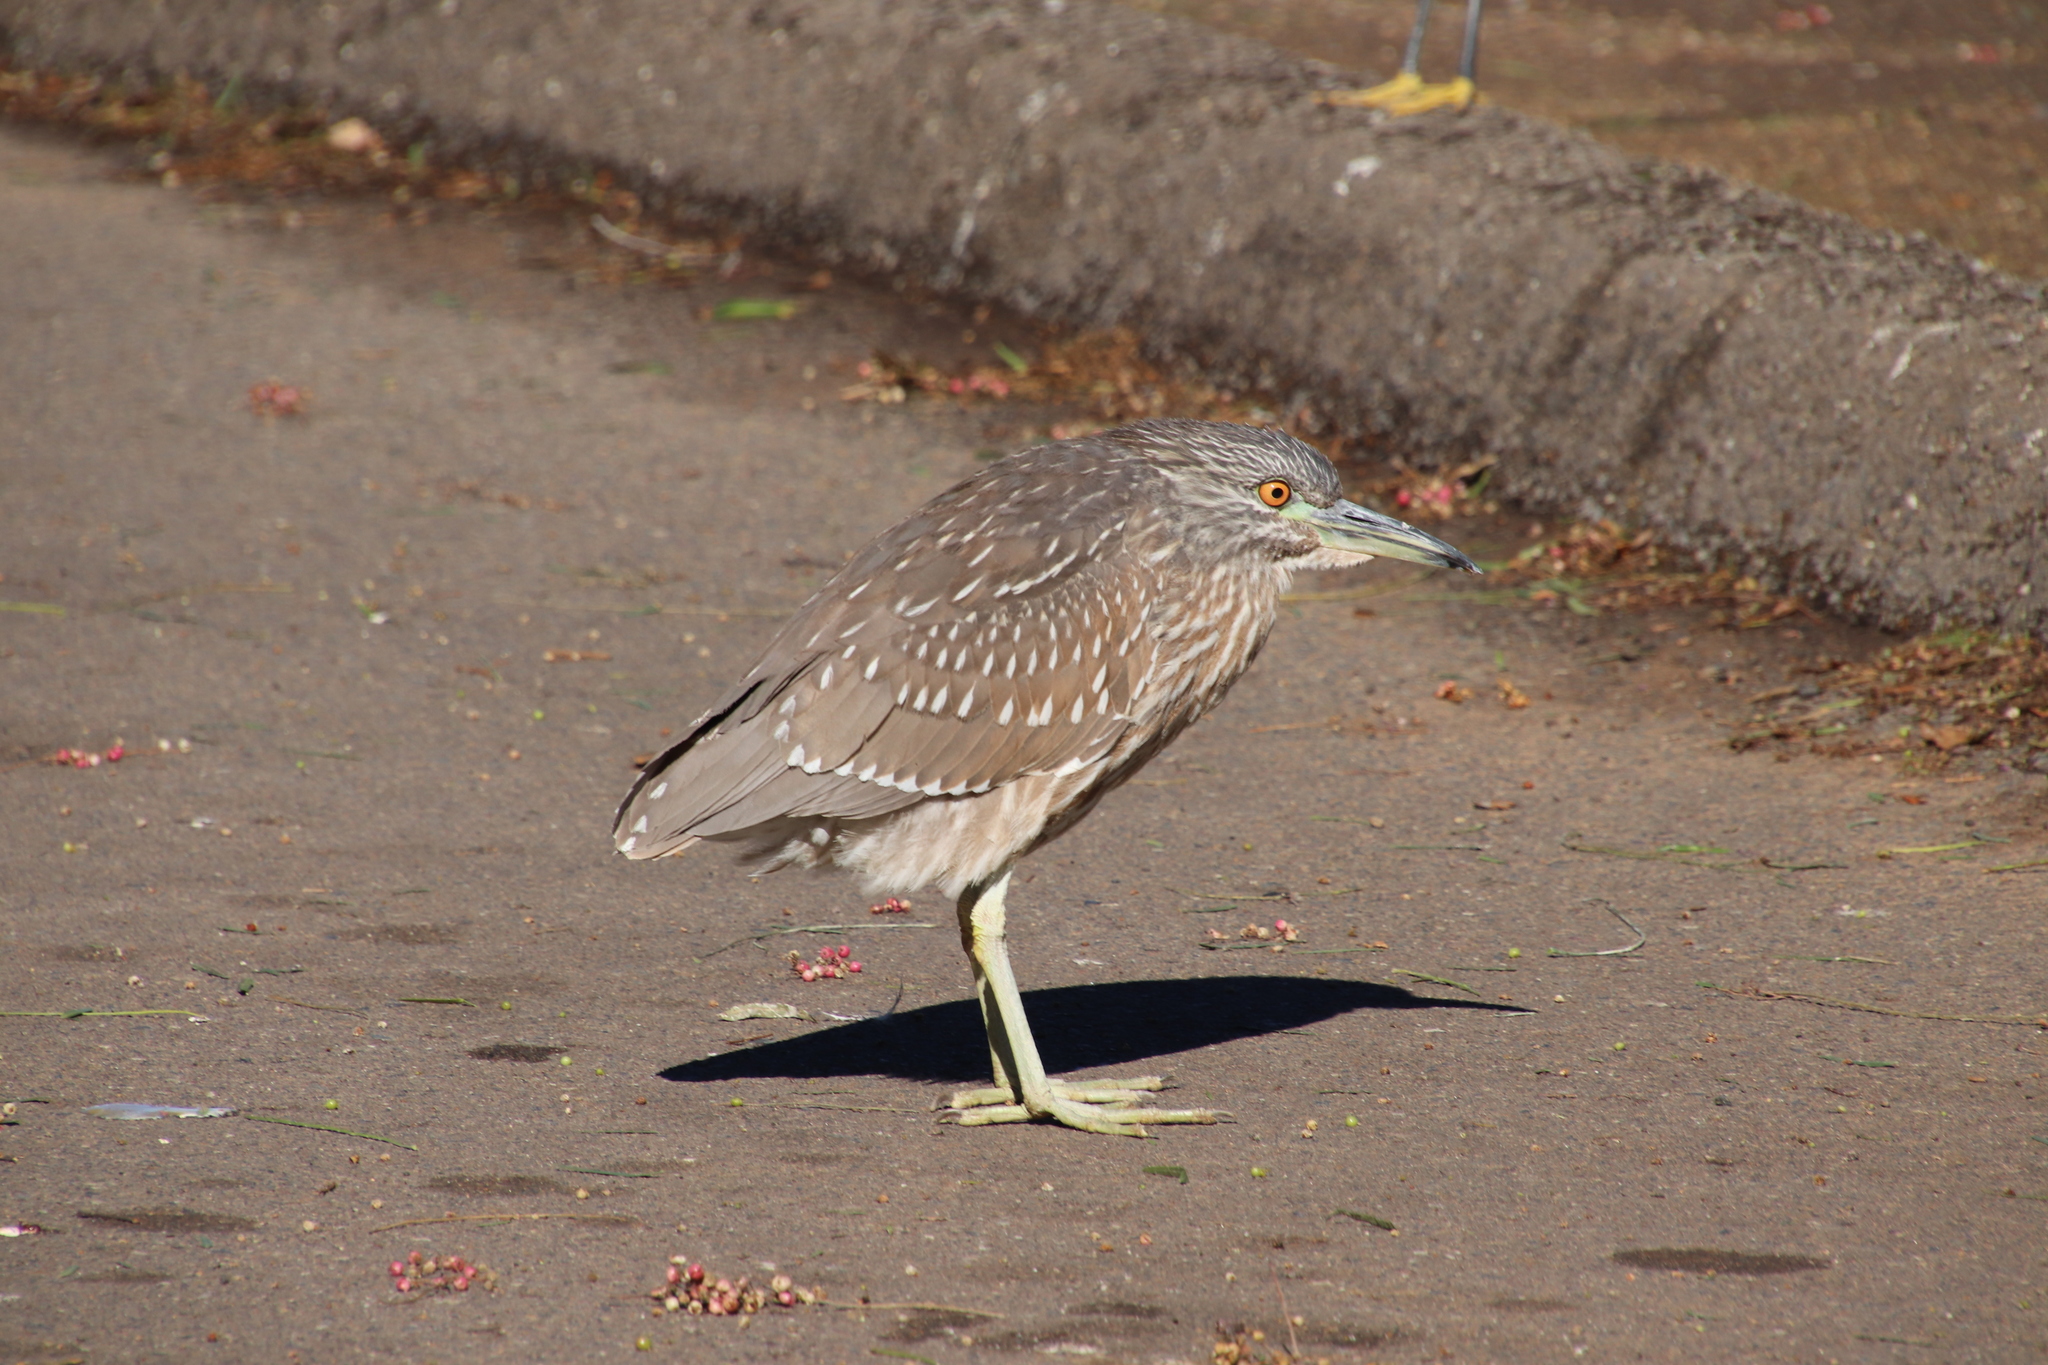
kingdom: Animalia
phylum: Chordata
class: Aves
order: Pelecaniformes
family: Ardeidae
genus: Nycticorax
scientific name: Nycticorax nycticorax
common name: Black-crowned night heron
